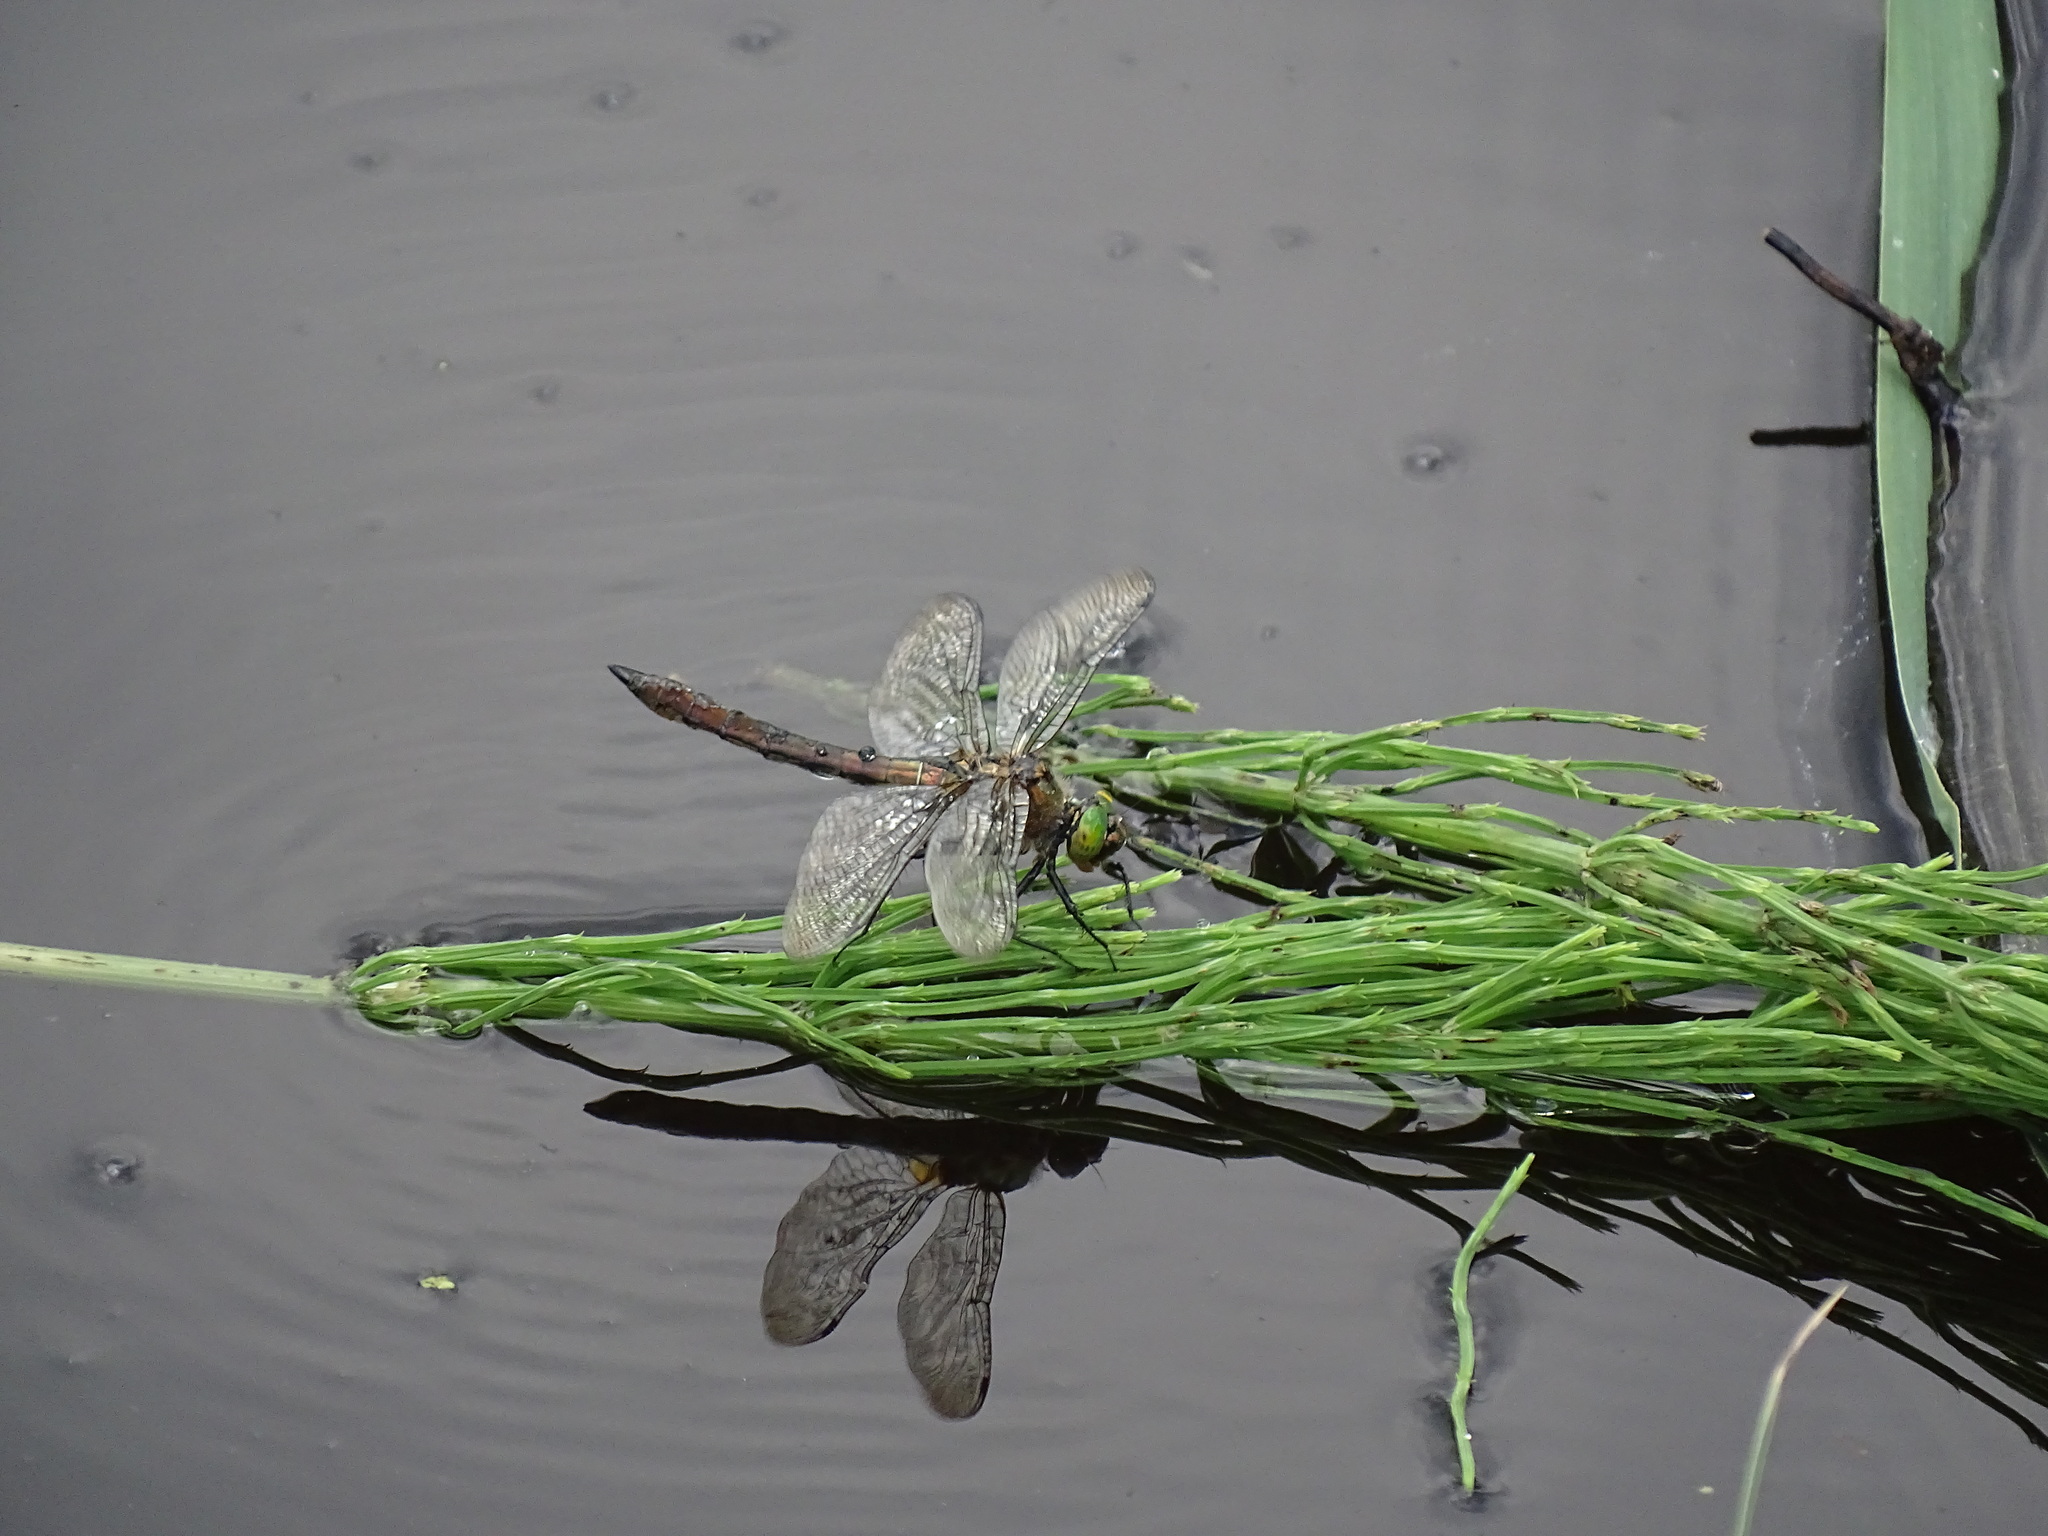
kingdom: Animalia
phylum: Arthropoda
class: Insecta
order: Odonata
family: Corduliidae
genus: Cordulia
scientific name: Cordulia aenea
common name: Downy emerald
